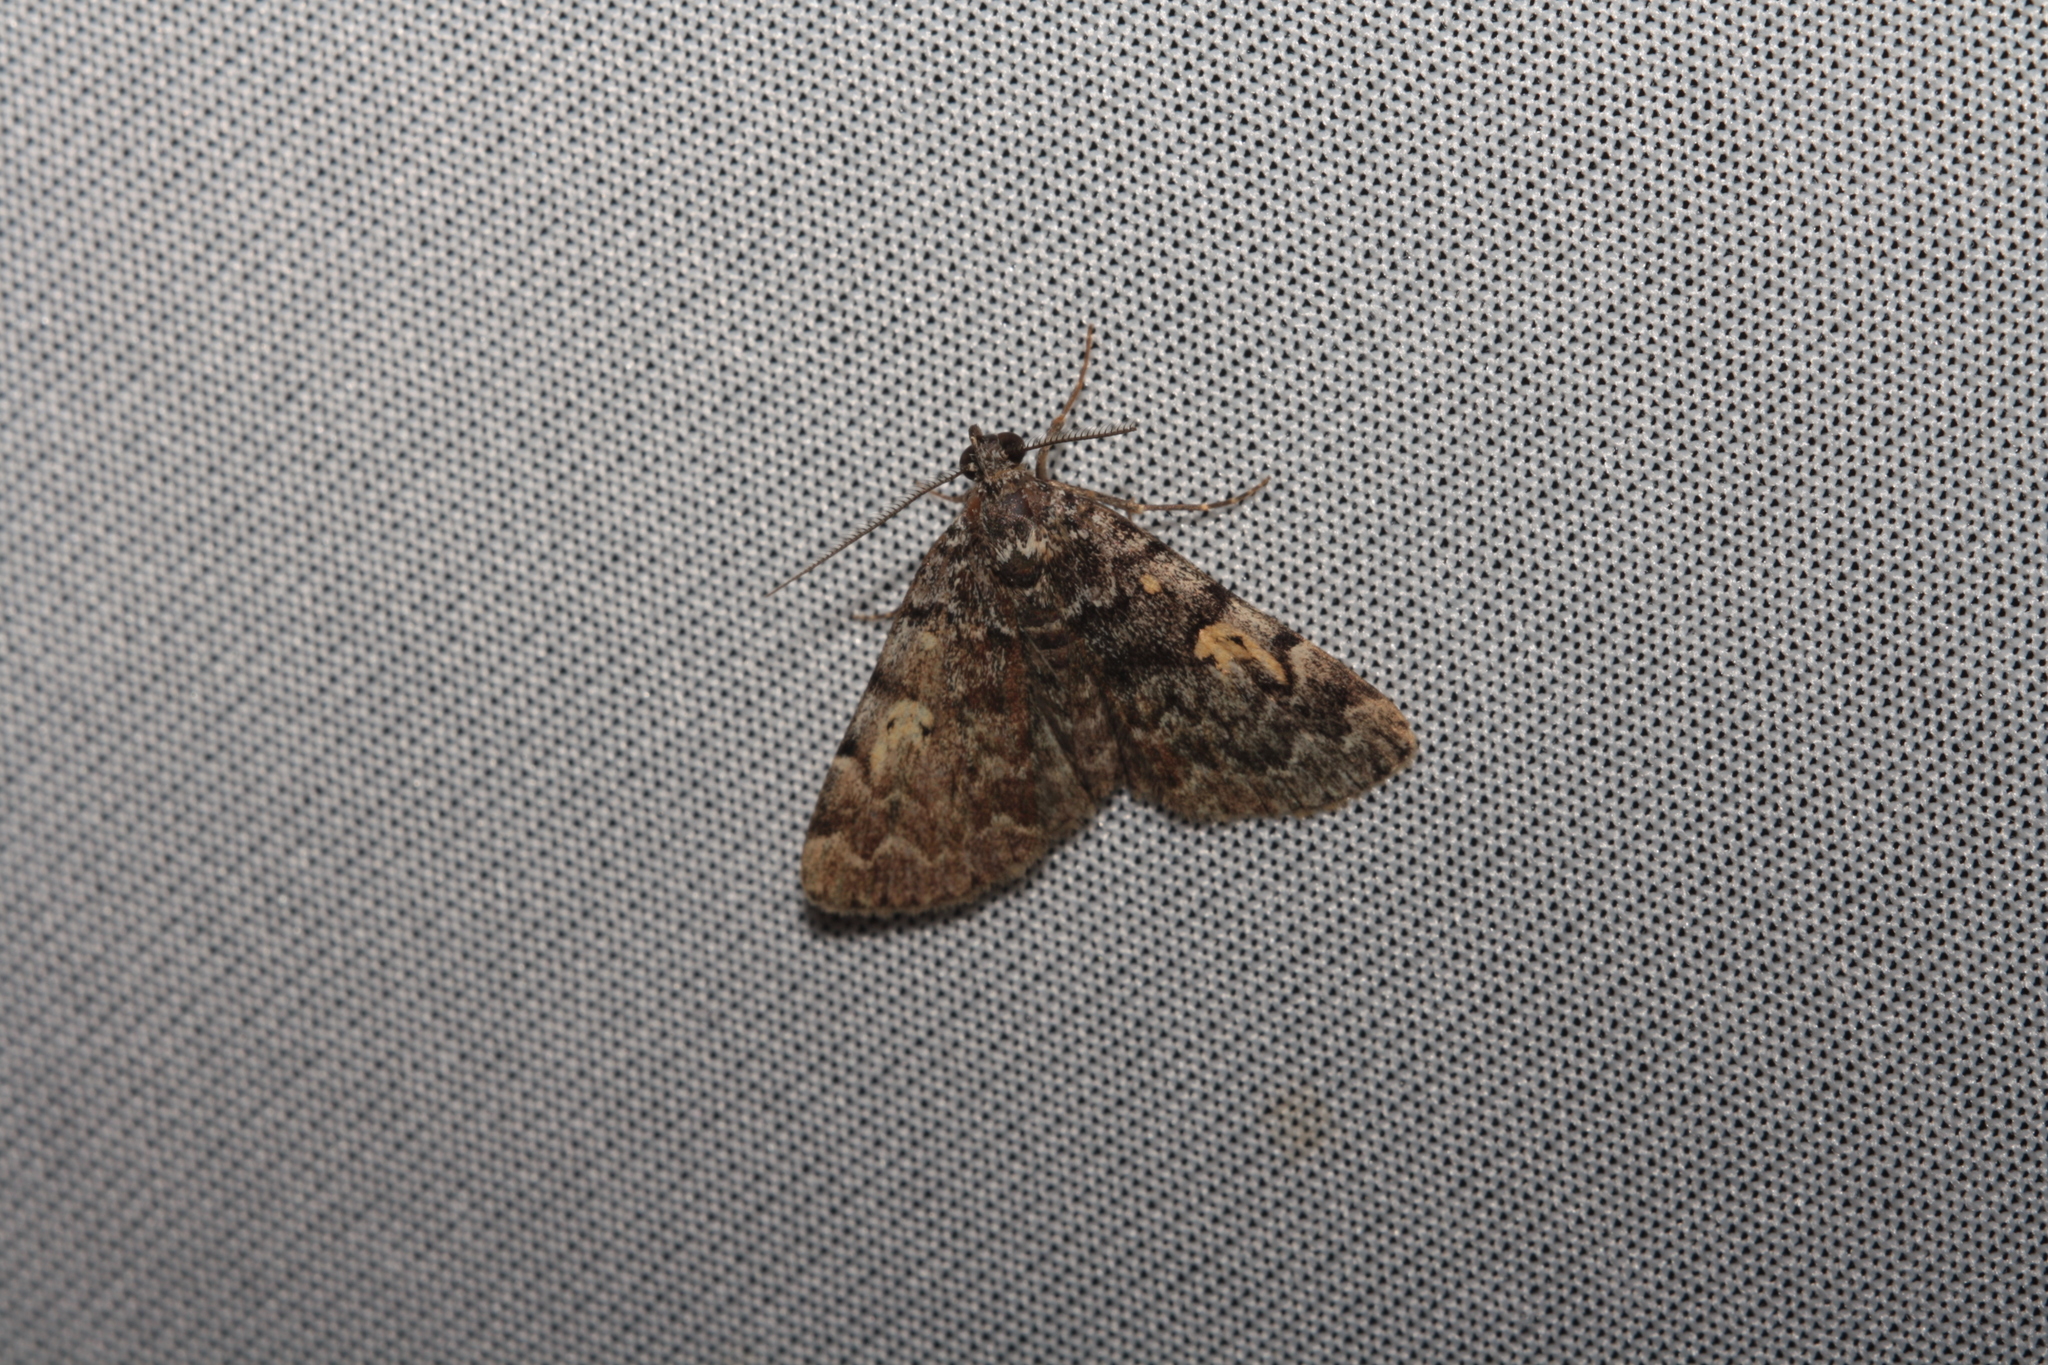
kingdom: Animalia
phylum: Arthropoda
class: Insecta
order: Lepidoptera
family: Erebidae
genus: Idia
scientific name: Idia calvaria
